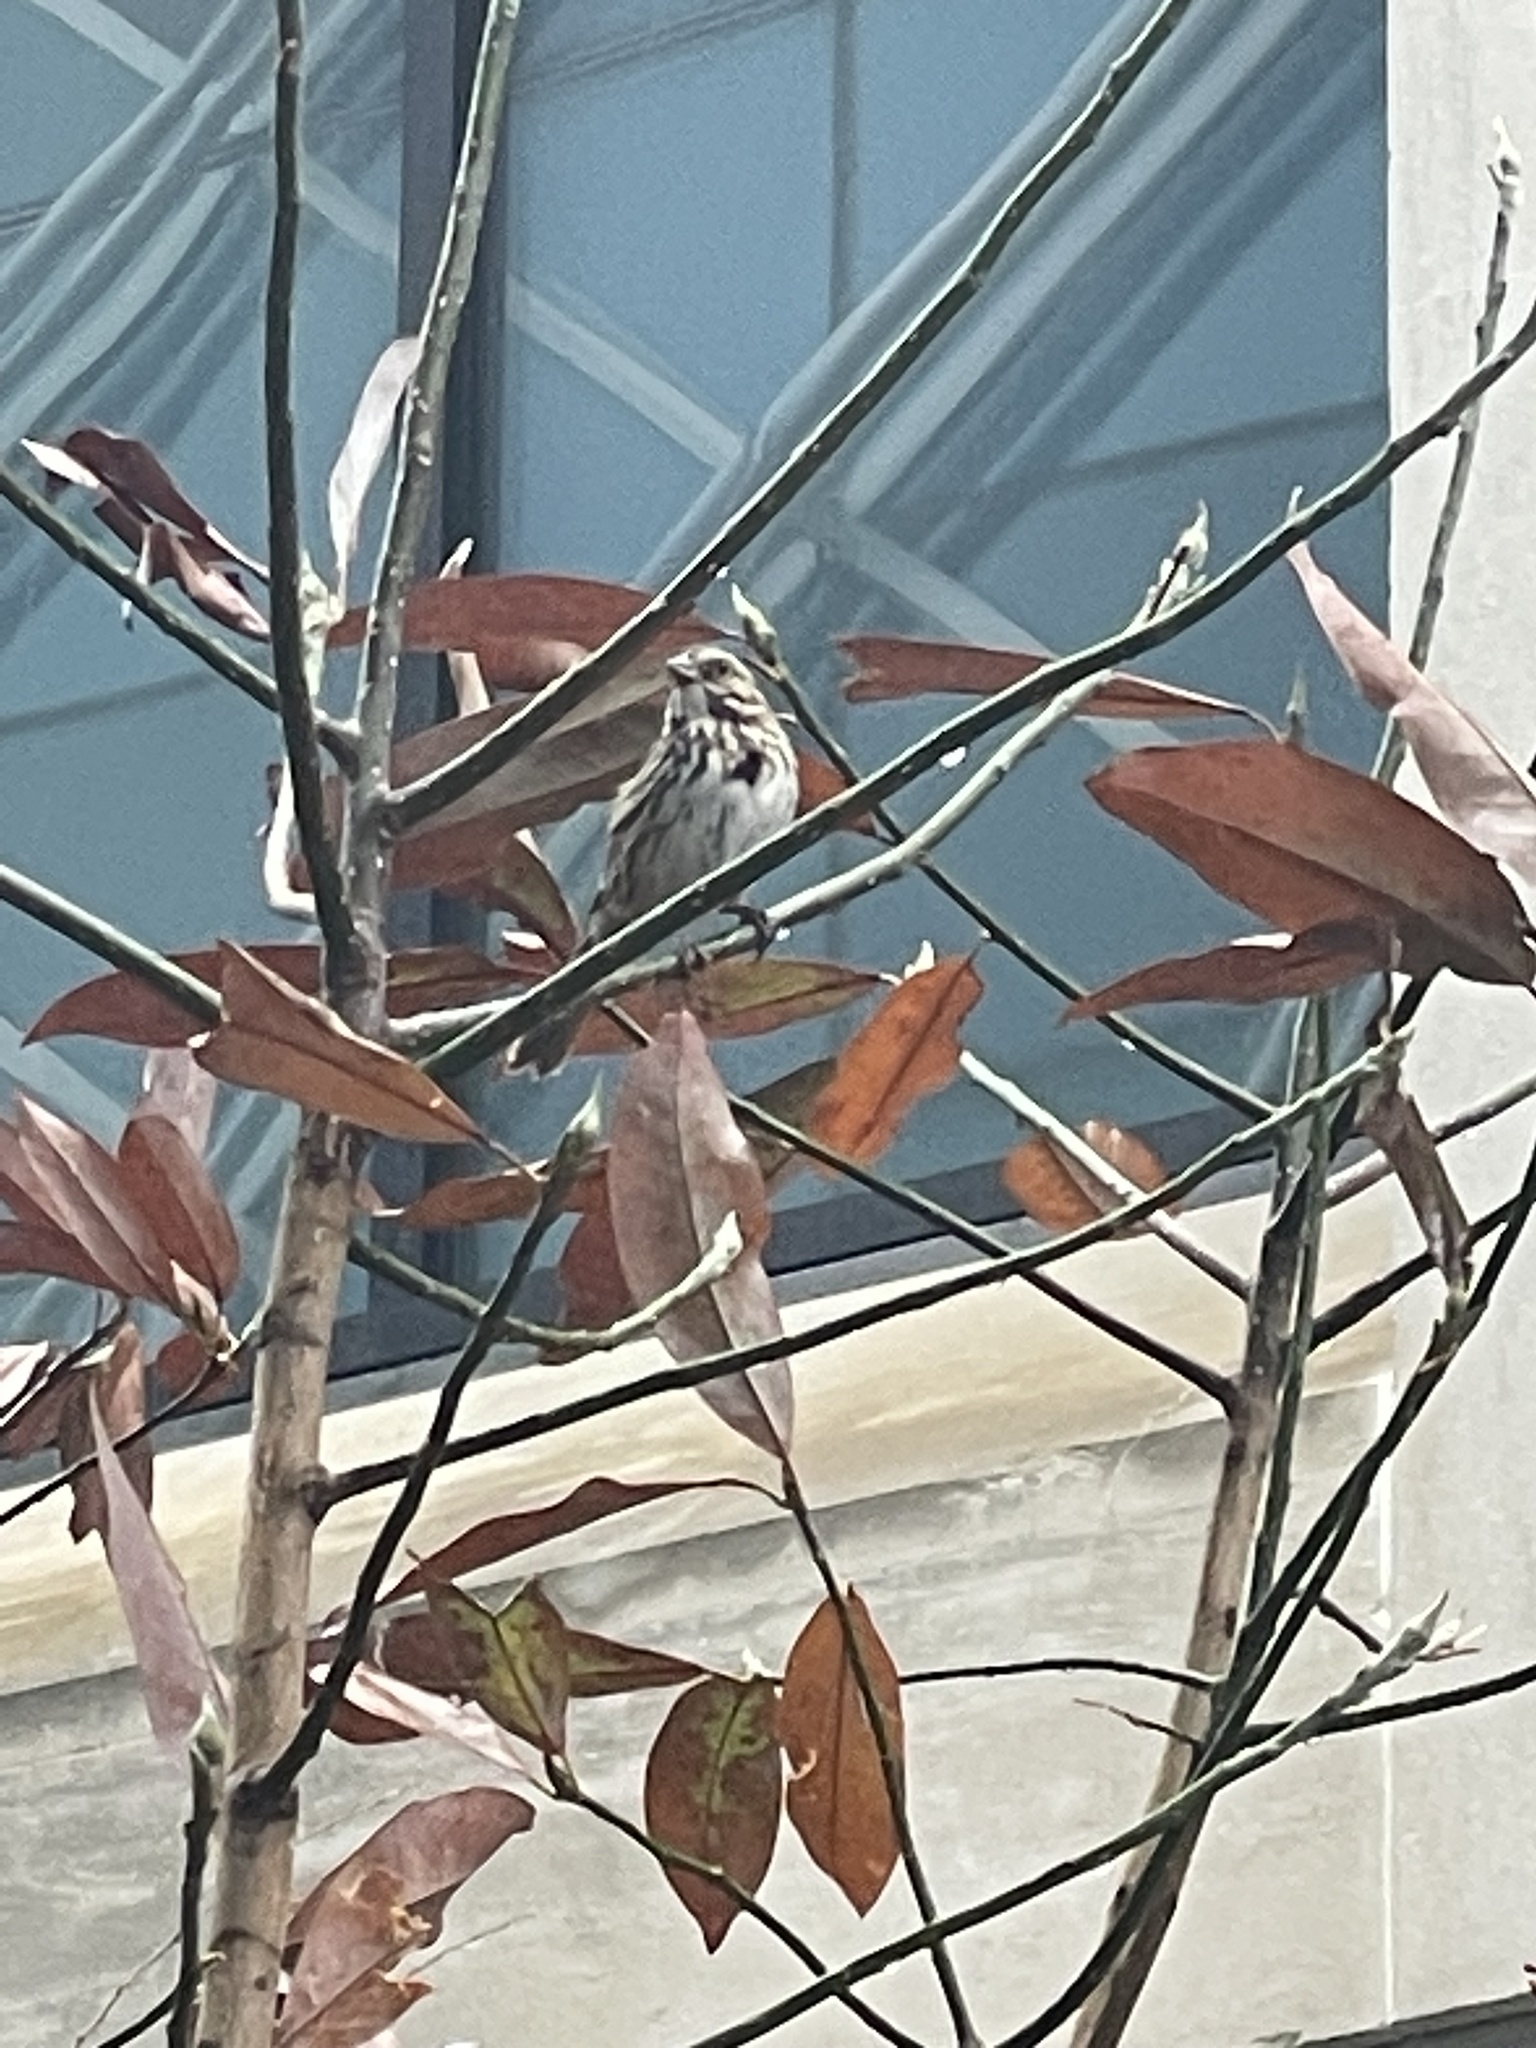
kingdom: Animalia
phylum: Chordata
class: Aves
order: Passeriformes
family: Passerellidae
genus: Melospiza
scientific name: Melospiza melodia
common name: Song sparrow
